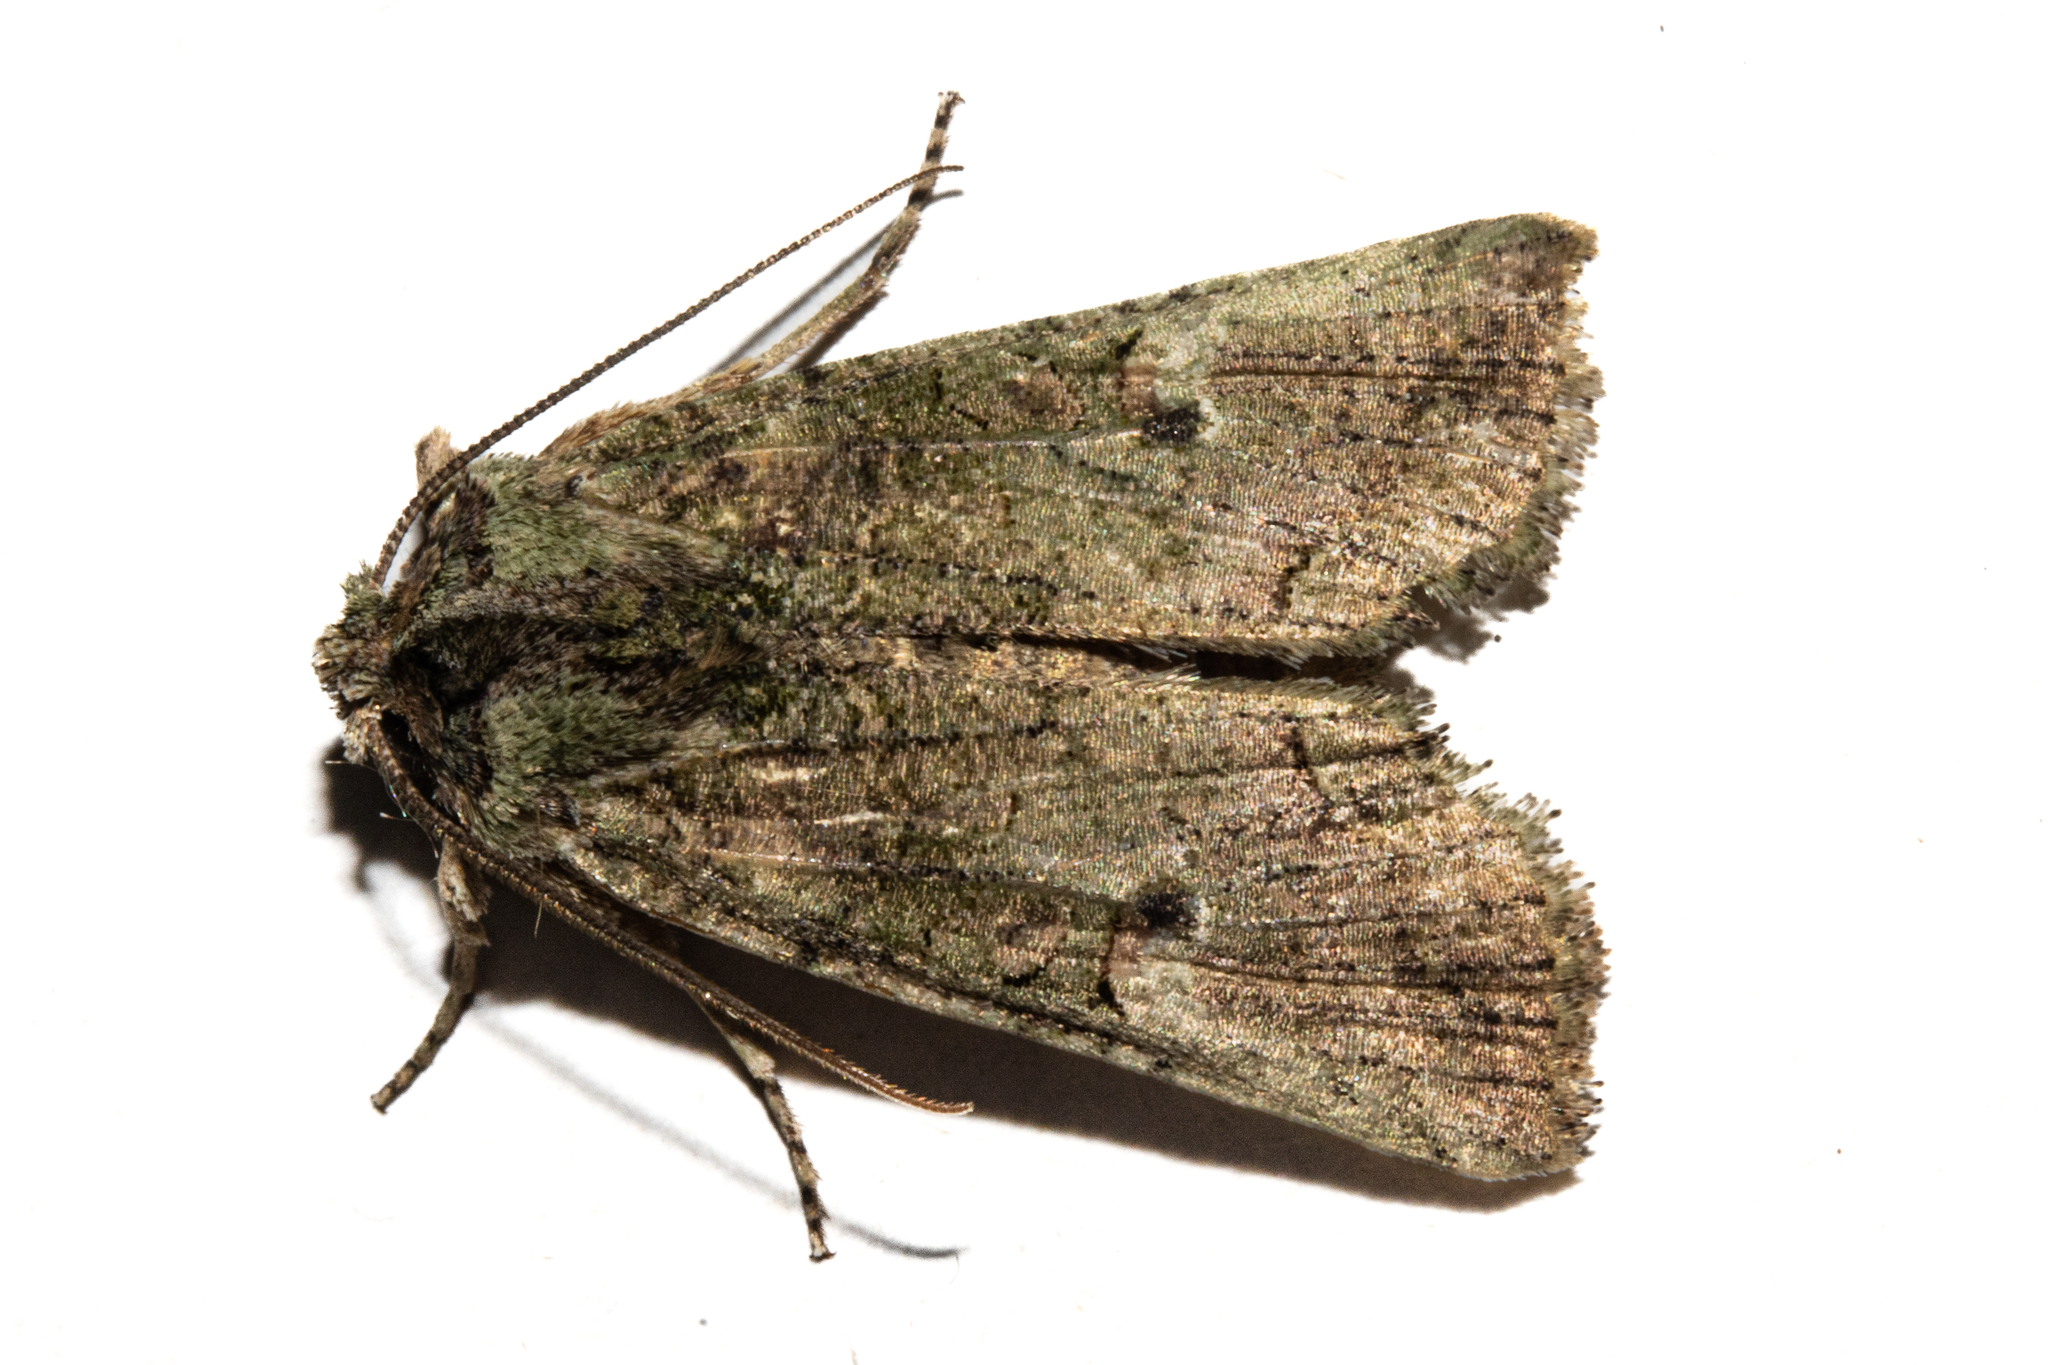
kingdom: Animalia
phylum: Arthropoda
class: Insecta
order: Lepidoptera
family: Noctuidae
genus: Meterana
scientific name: Meterana levis
